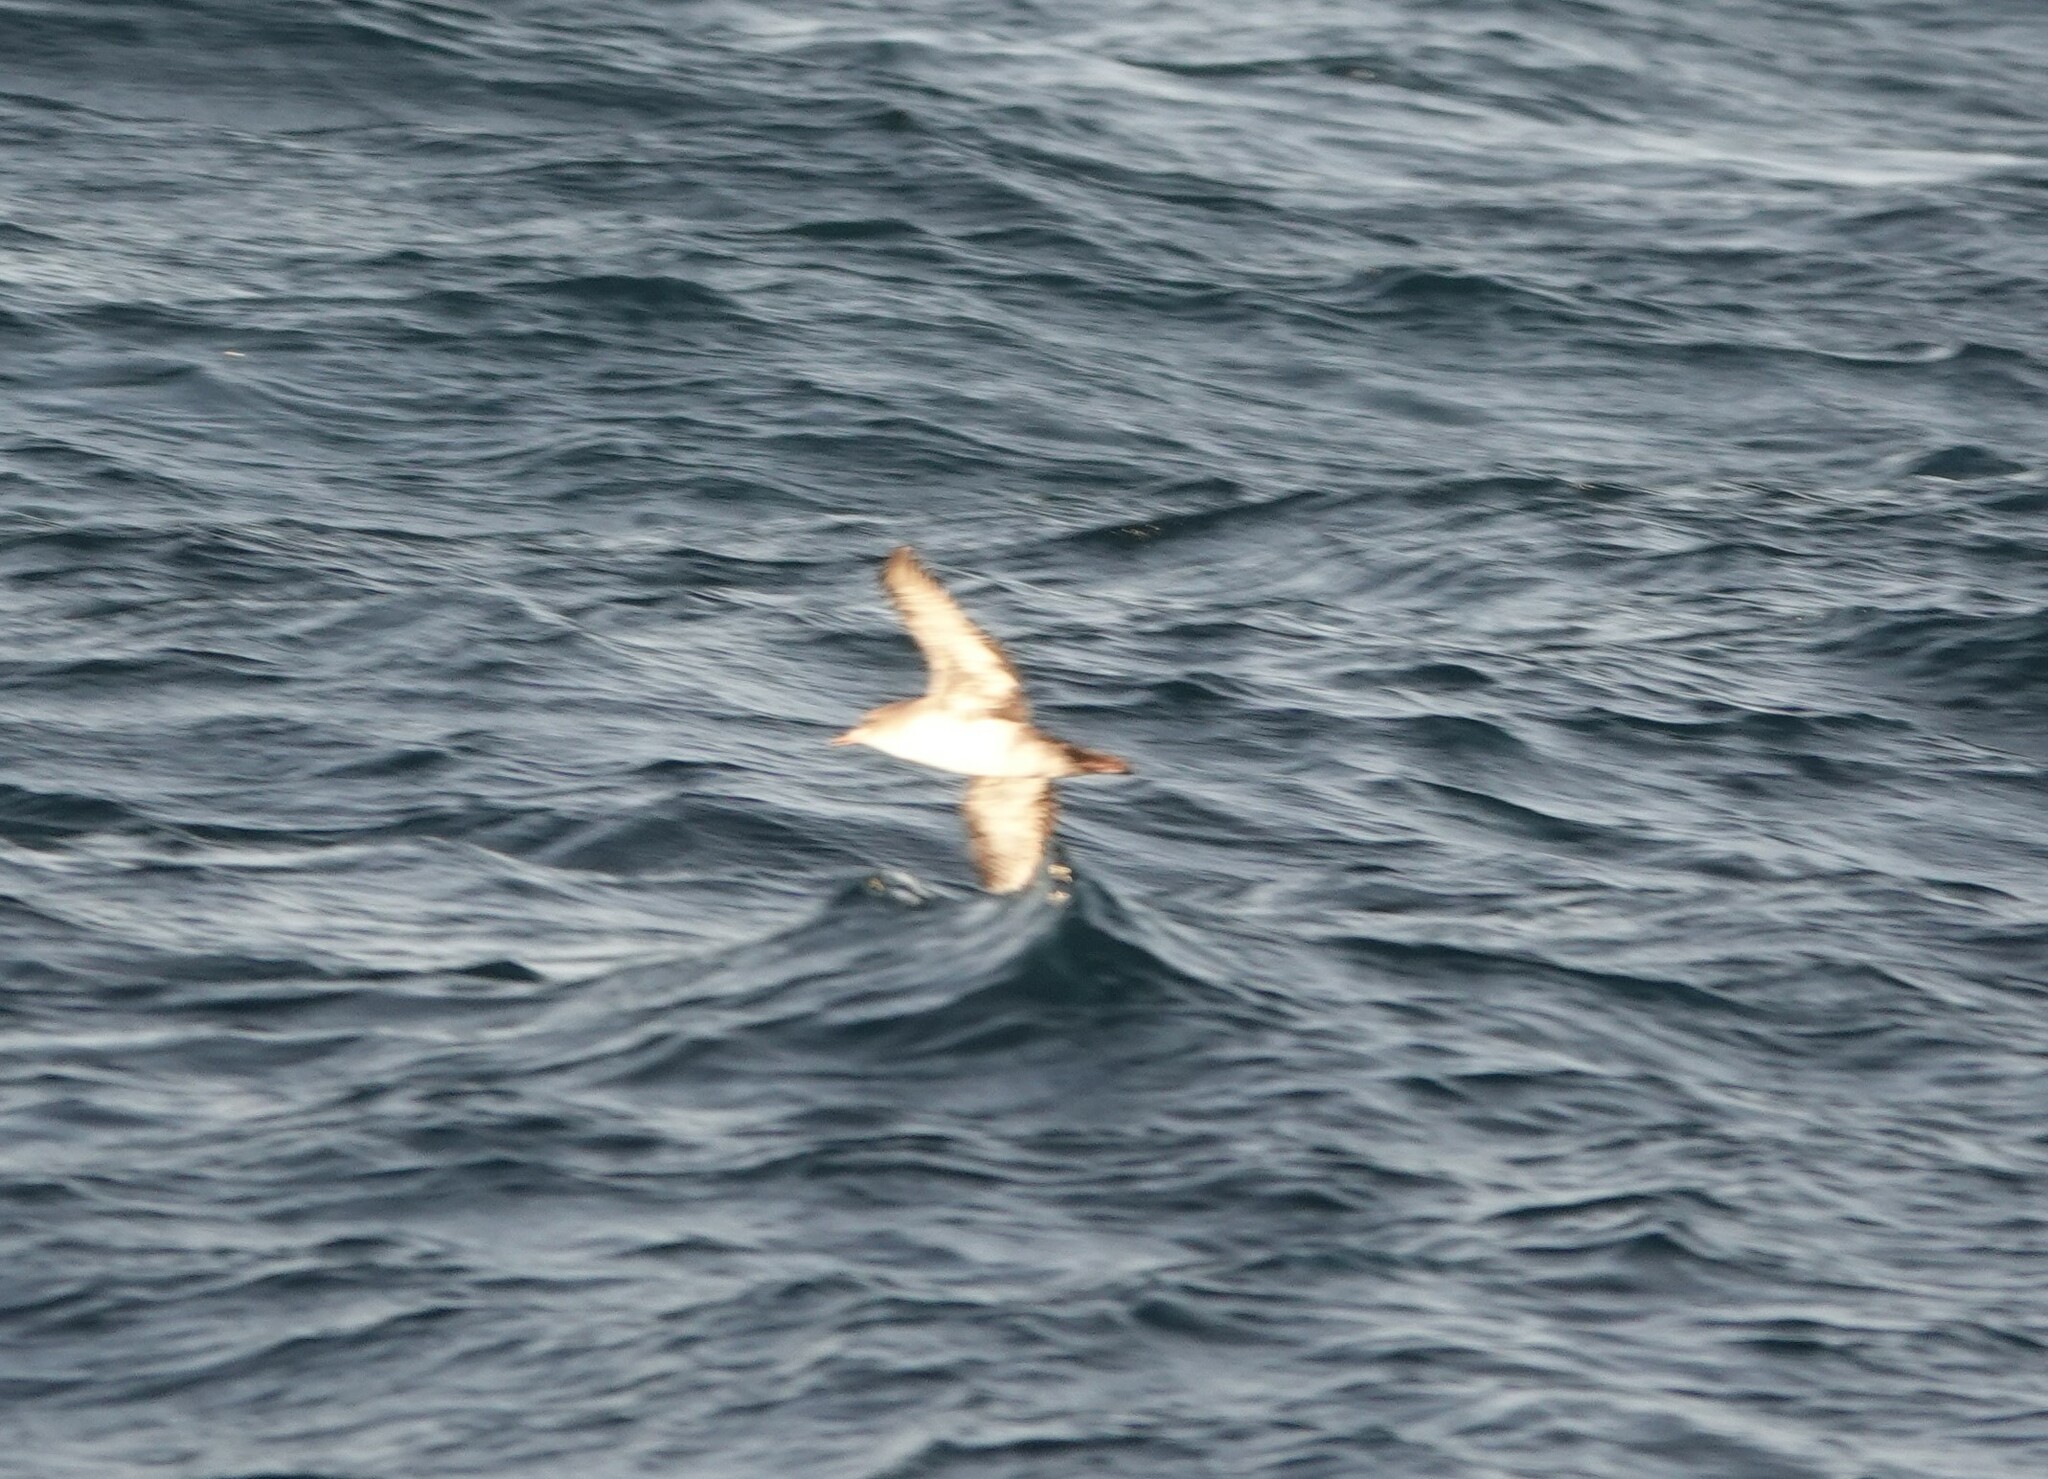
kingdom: Animalia
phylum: Chordata
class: Aves
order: Procellariiformes
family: Procellariidae
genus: Puffinus
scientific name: Puffinus creatopus
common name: Pink-footed shearwater
